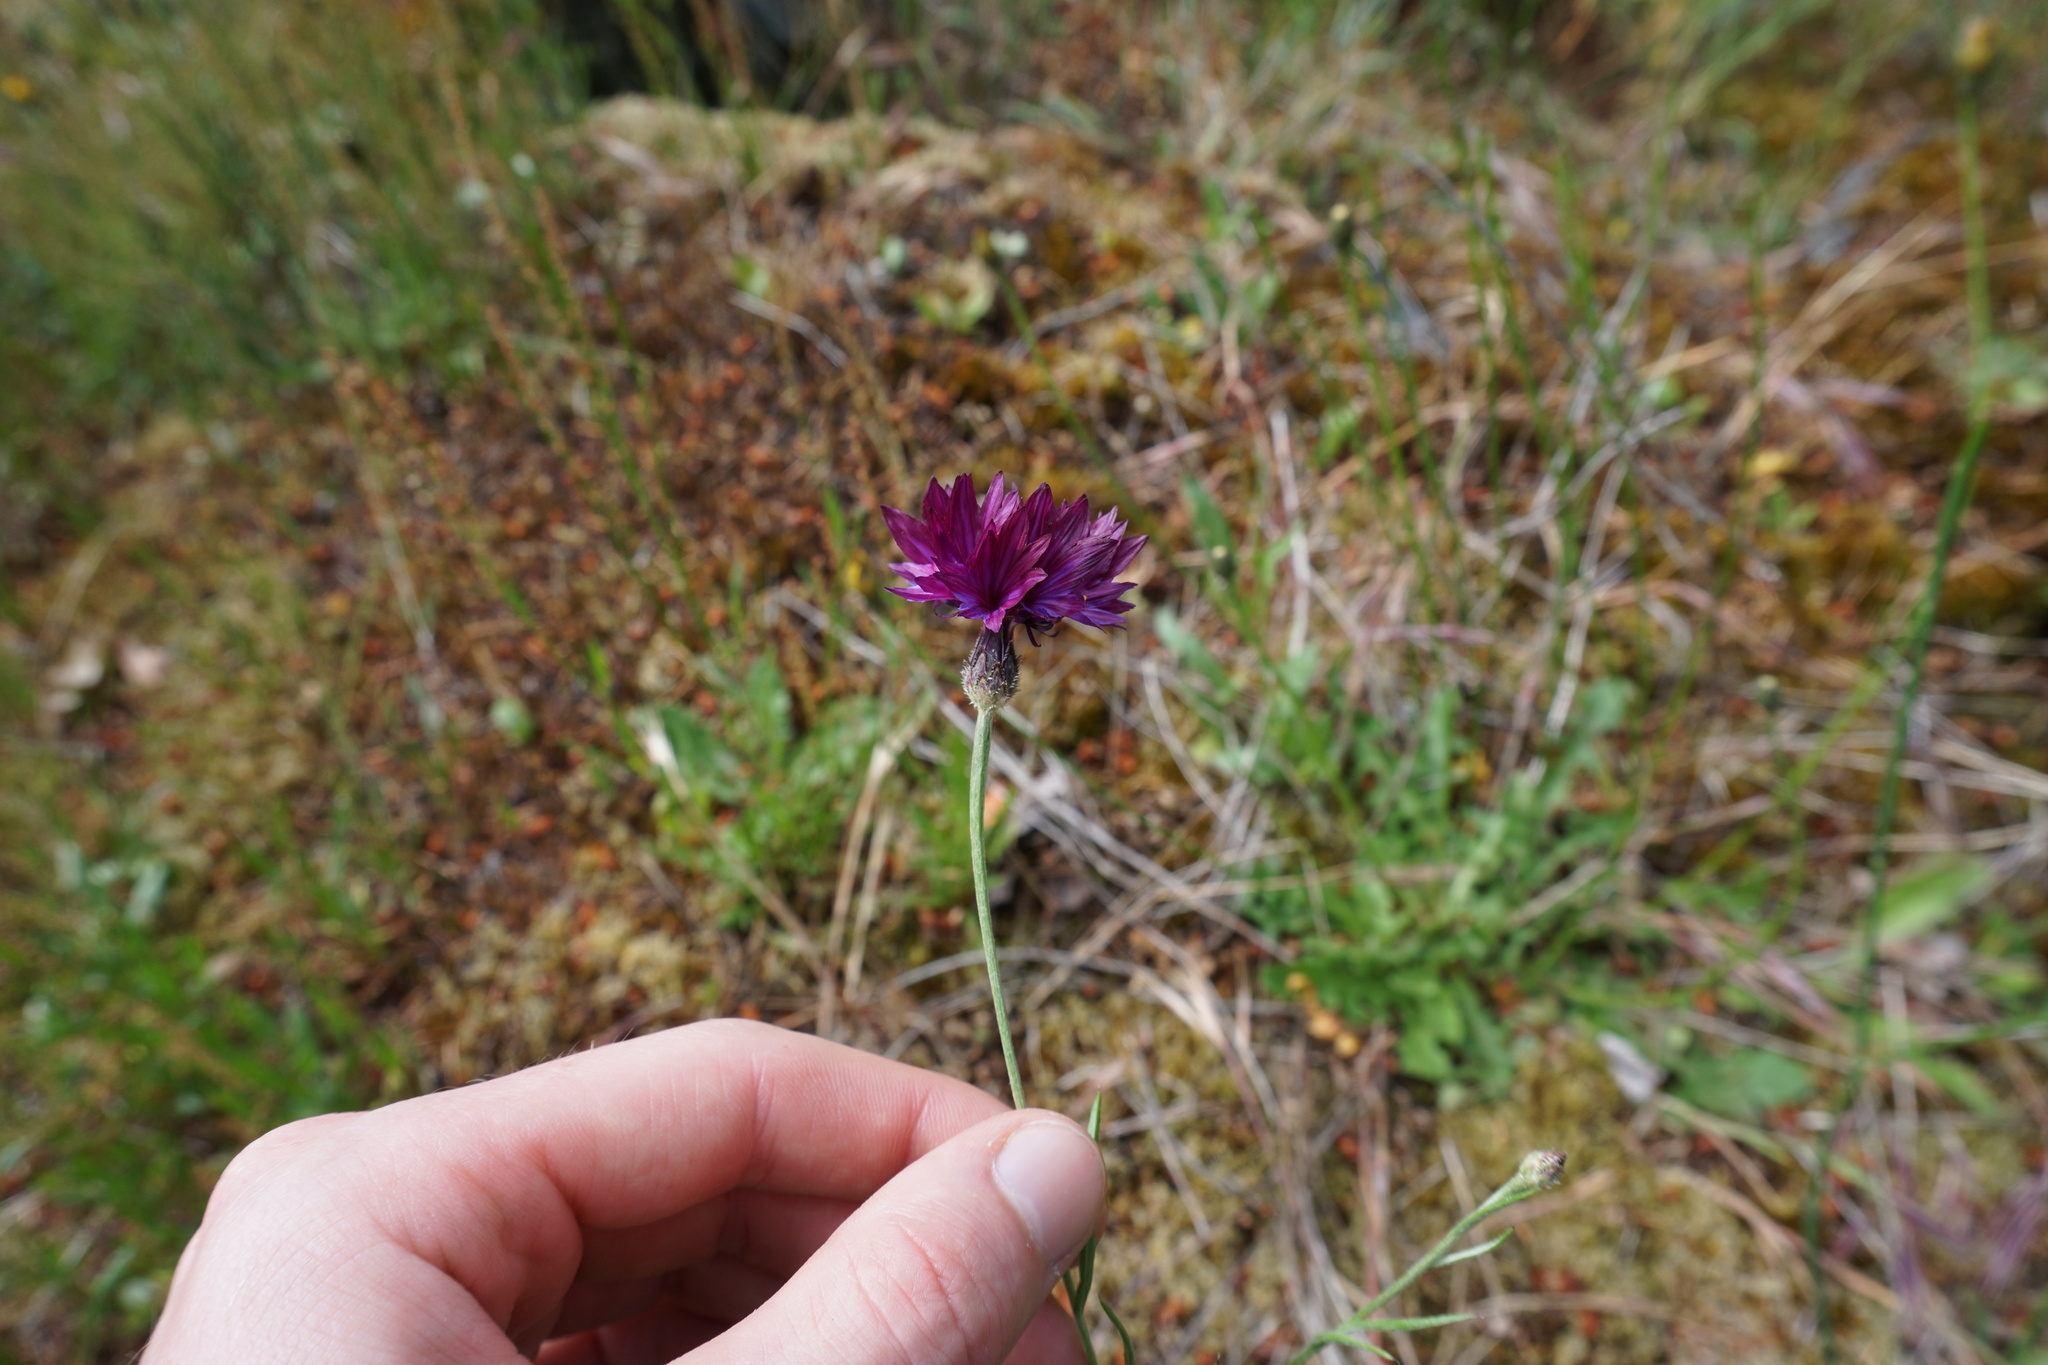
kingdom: Plantae
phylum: Tracheophyta
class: Magnoliopsida
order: Asterales
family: Asteraceae
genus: Centaurea
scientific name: Centaurea cyanus
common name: Cornflower
